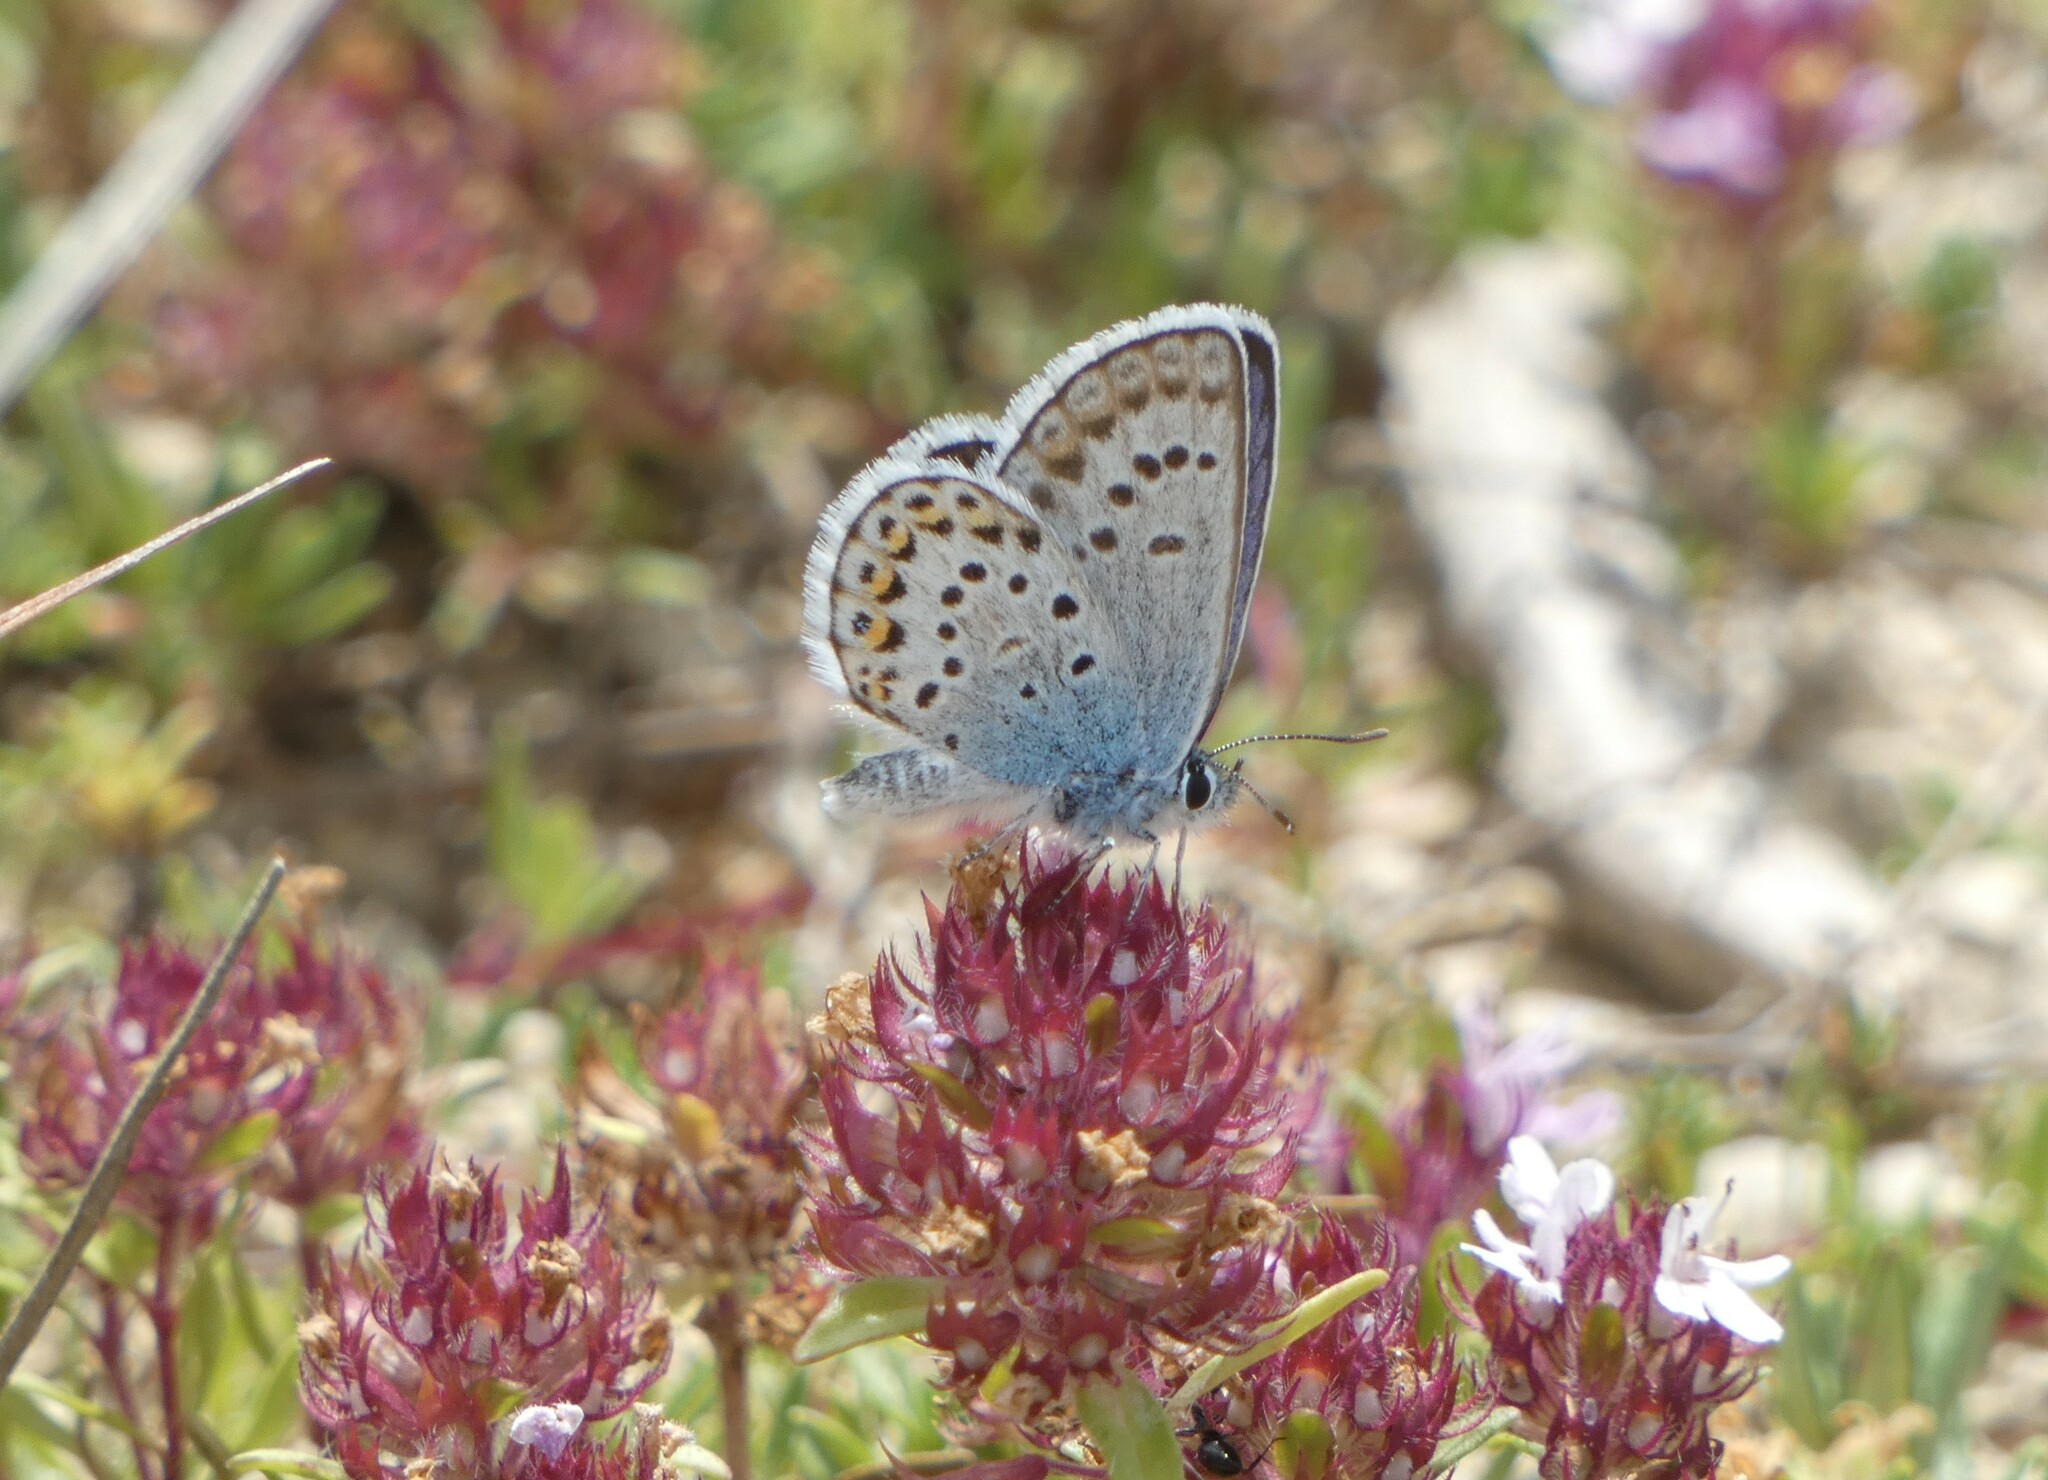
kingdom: Animalia
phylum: Arthropoda
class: Insecta
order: Lepidoptera
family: Lycaenidae
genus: Plebejus
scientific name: Plebejus argus
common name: Silver-studded blue
